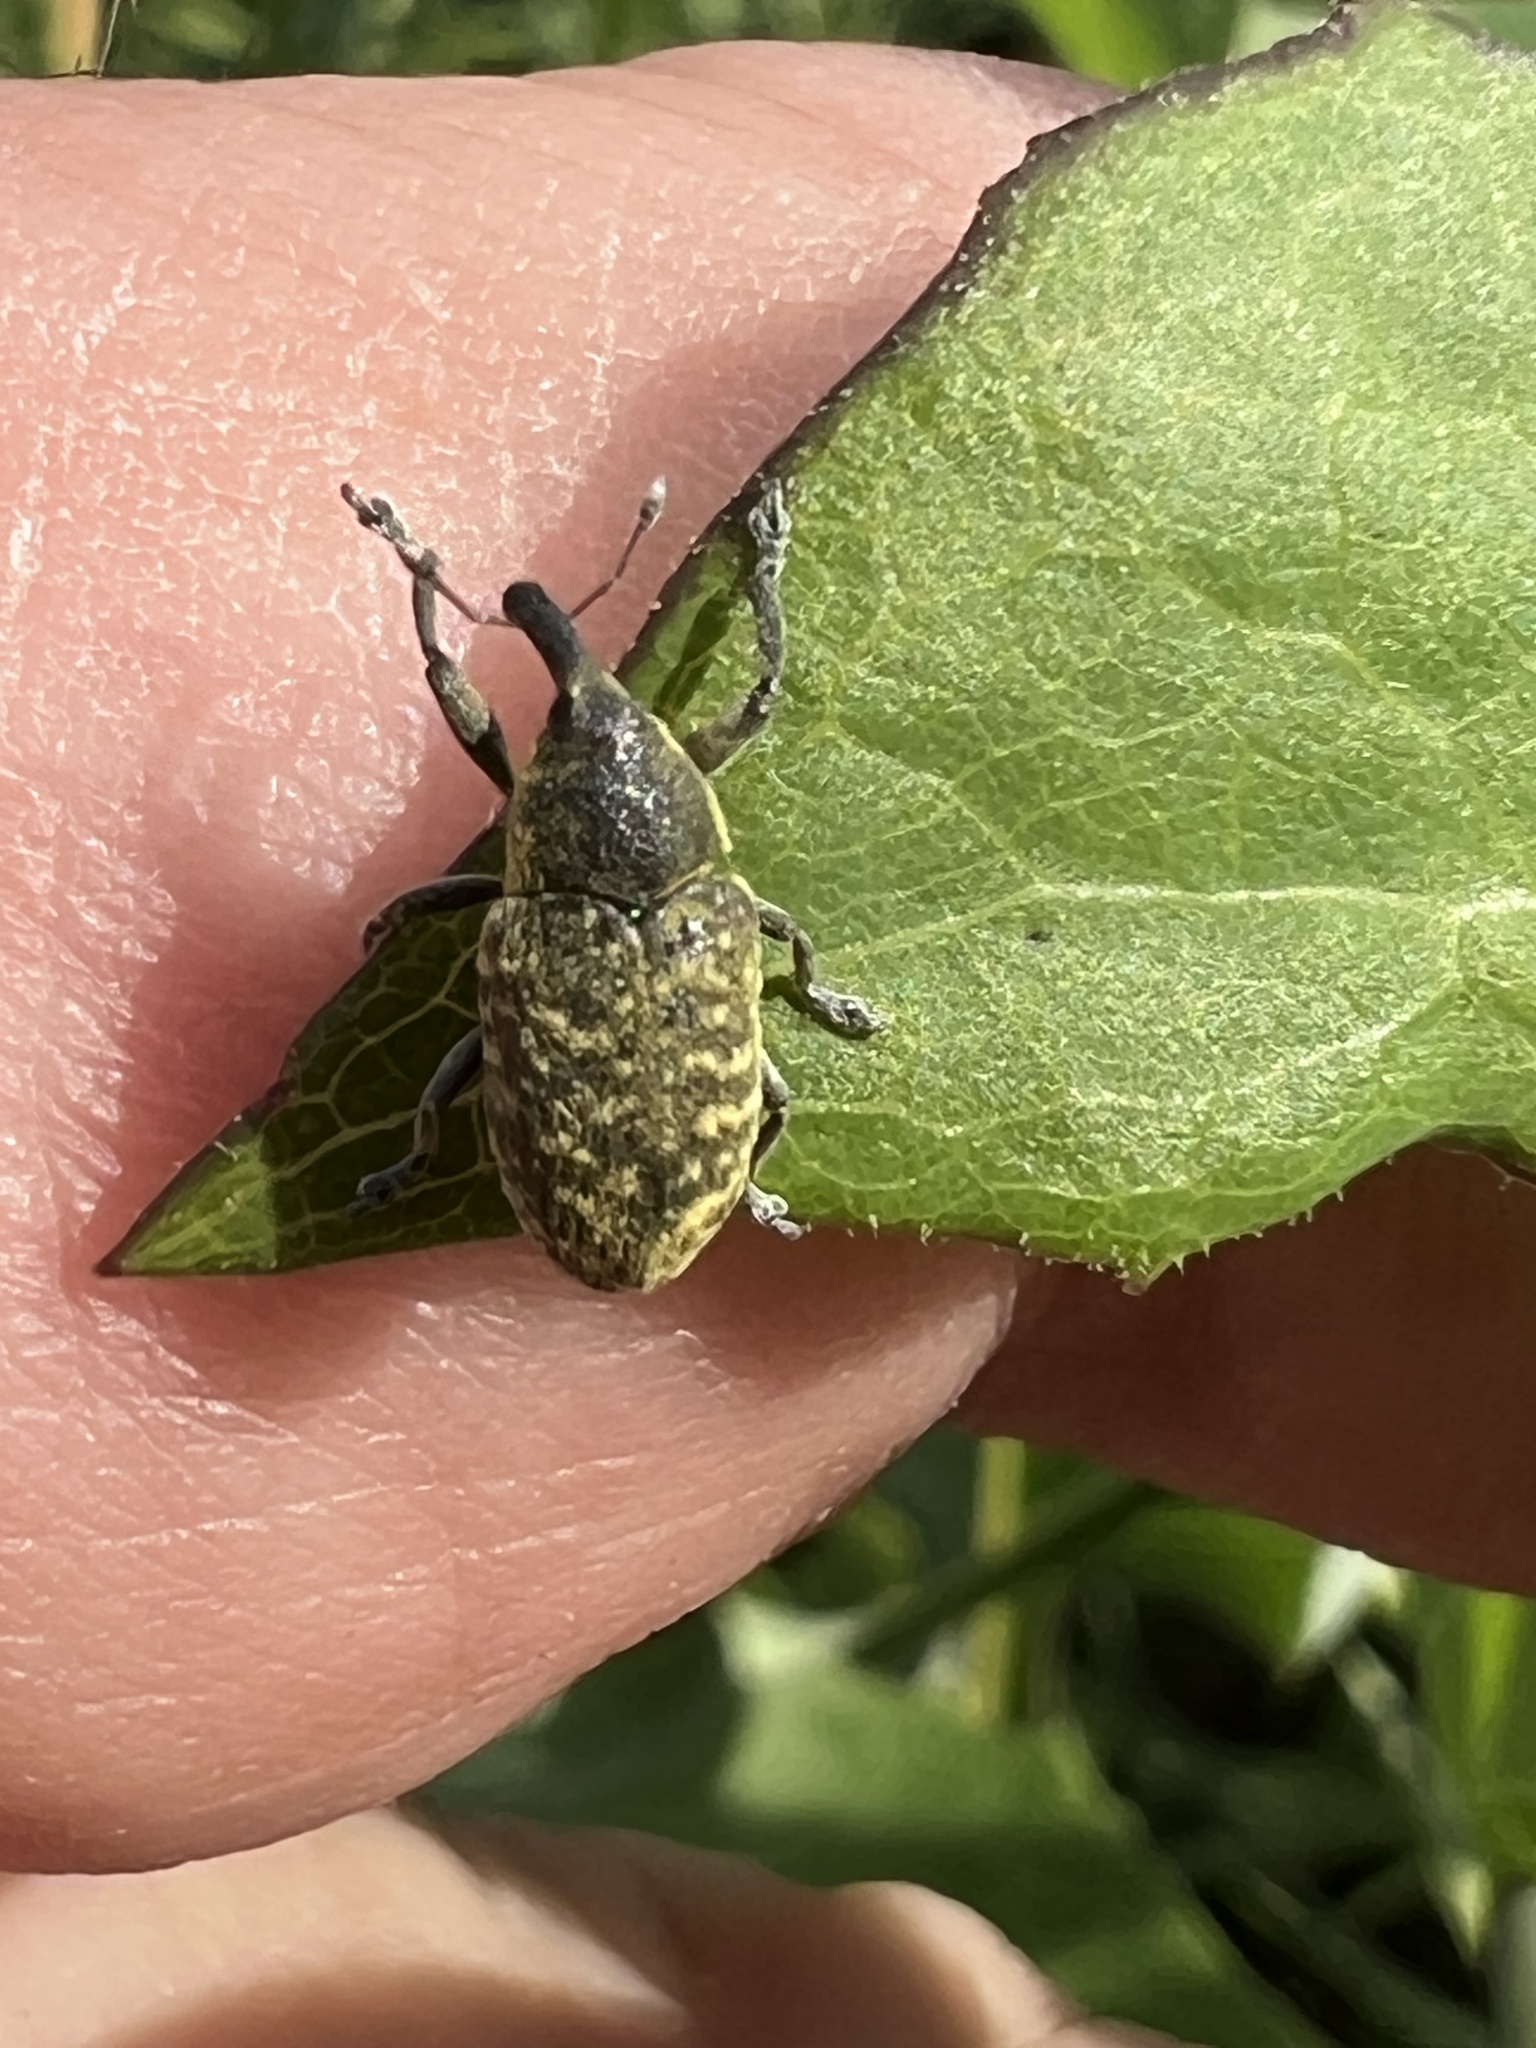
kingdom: Animalia
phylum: Arthropoda
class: Insecta
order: Coleoptera
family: Curculionidae
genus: Larinus
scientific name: Larinus carlinae
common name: Weevil
